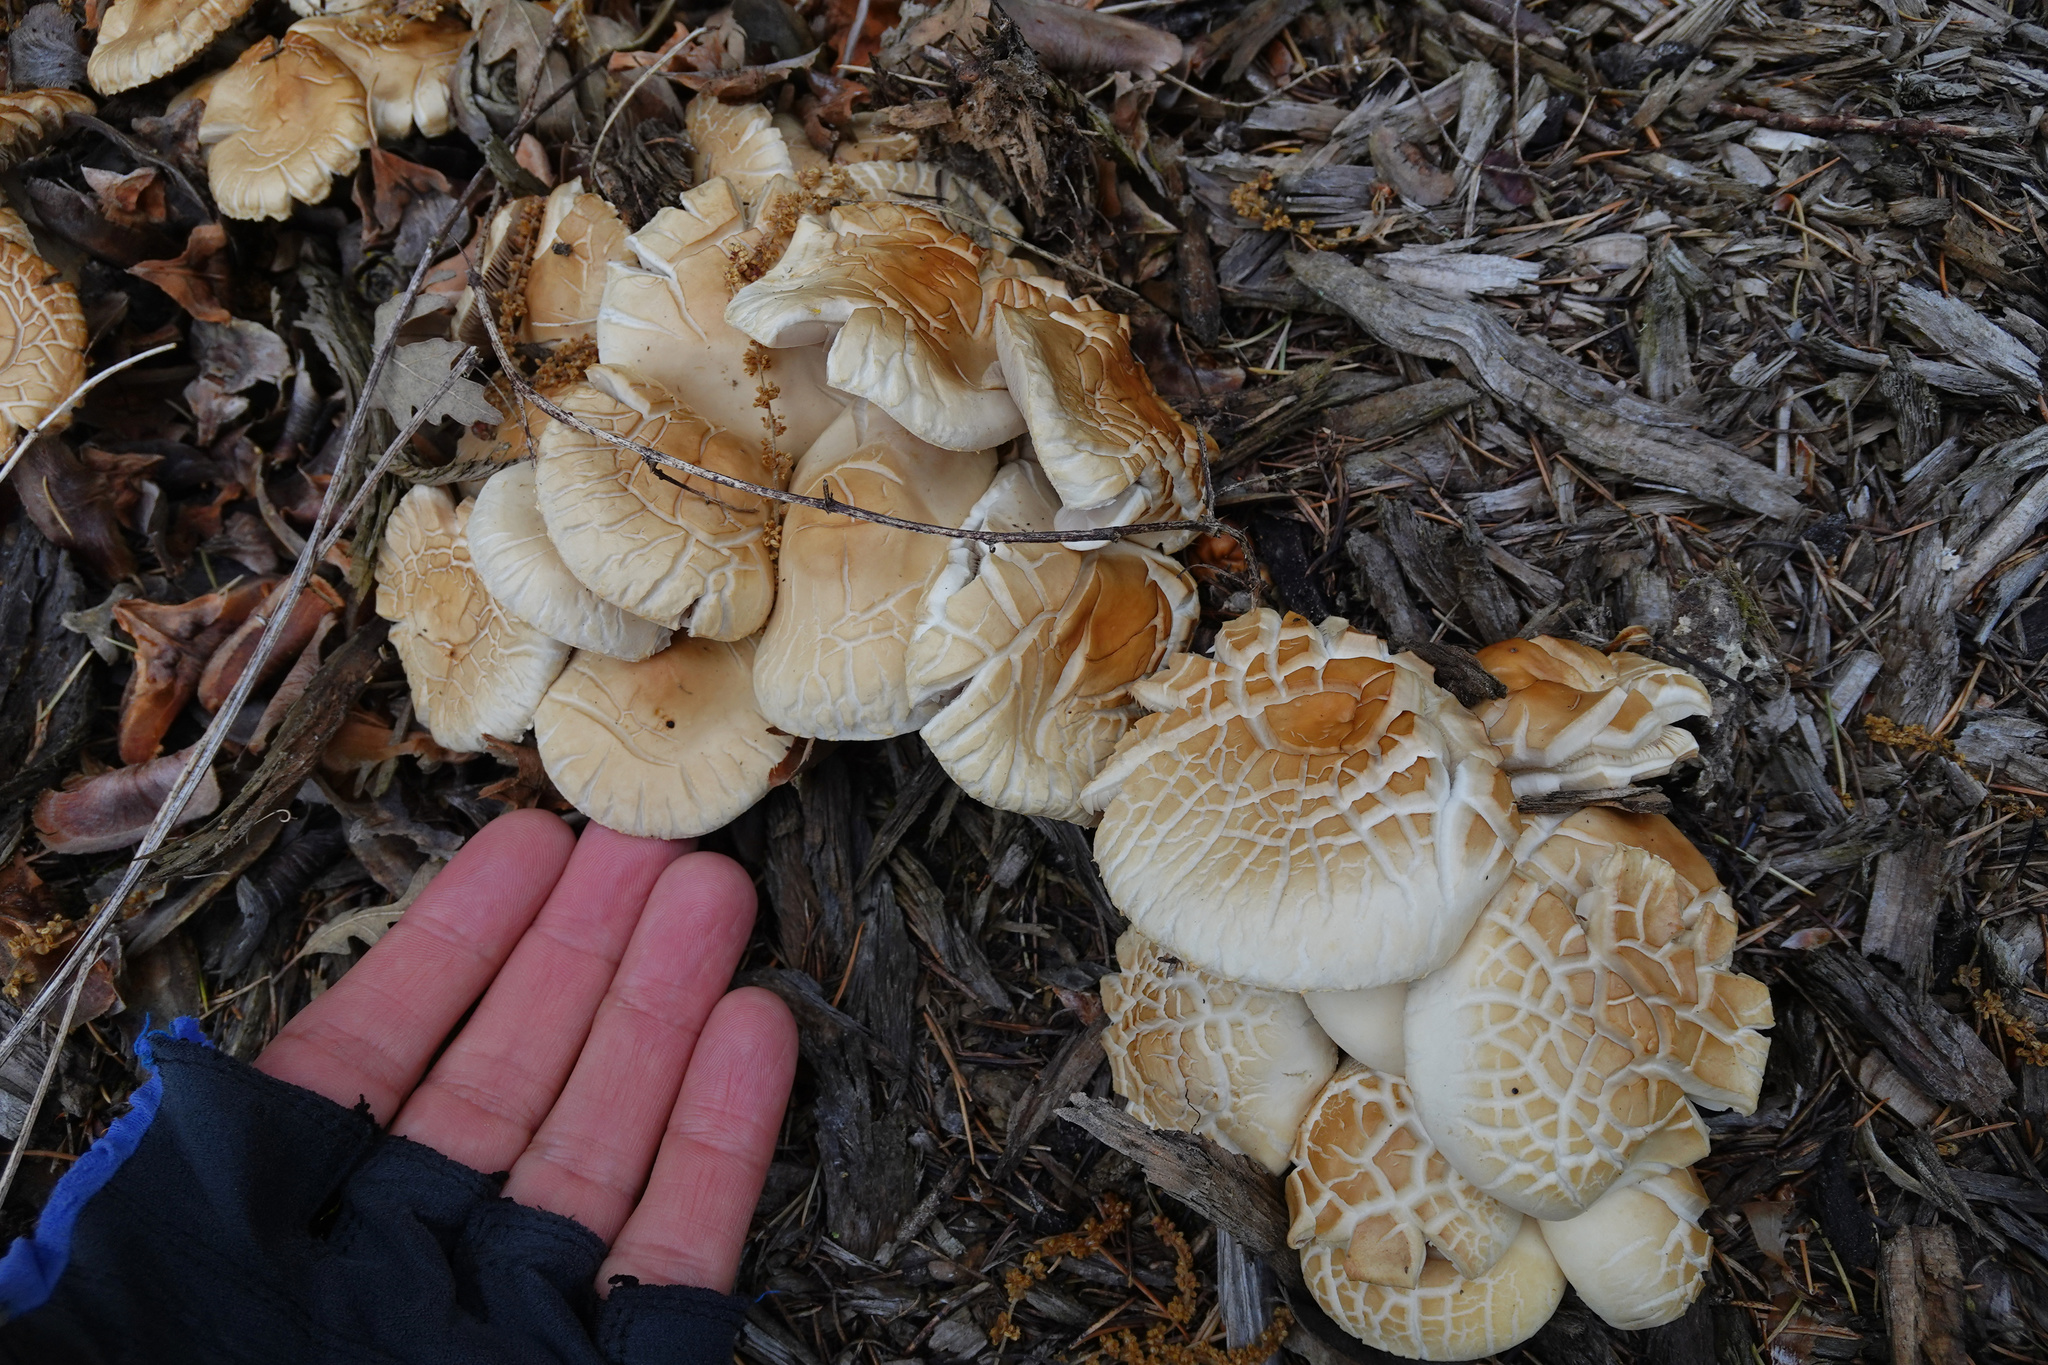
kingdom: Fungi
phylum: Basidiomycota
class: Agaricomycetes
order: Agaricales
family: Strophariaceae
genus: Agrocybe
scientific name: Agrocybe praecox
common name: Spring fieldcap
